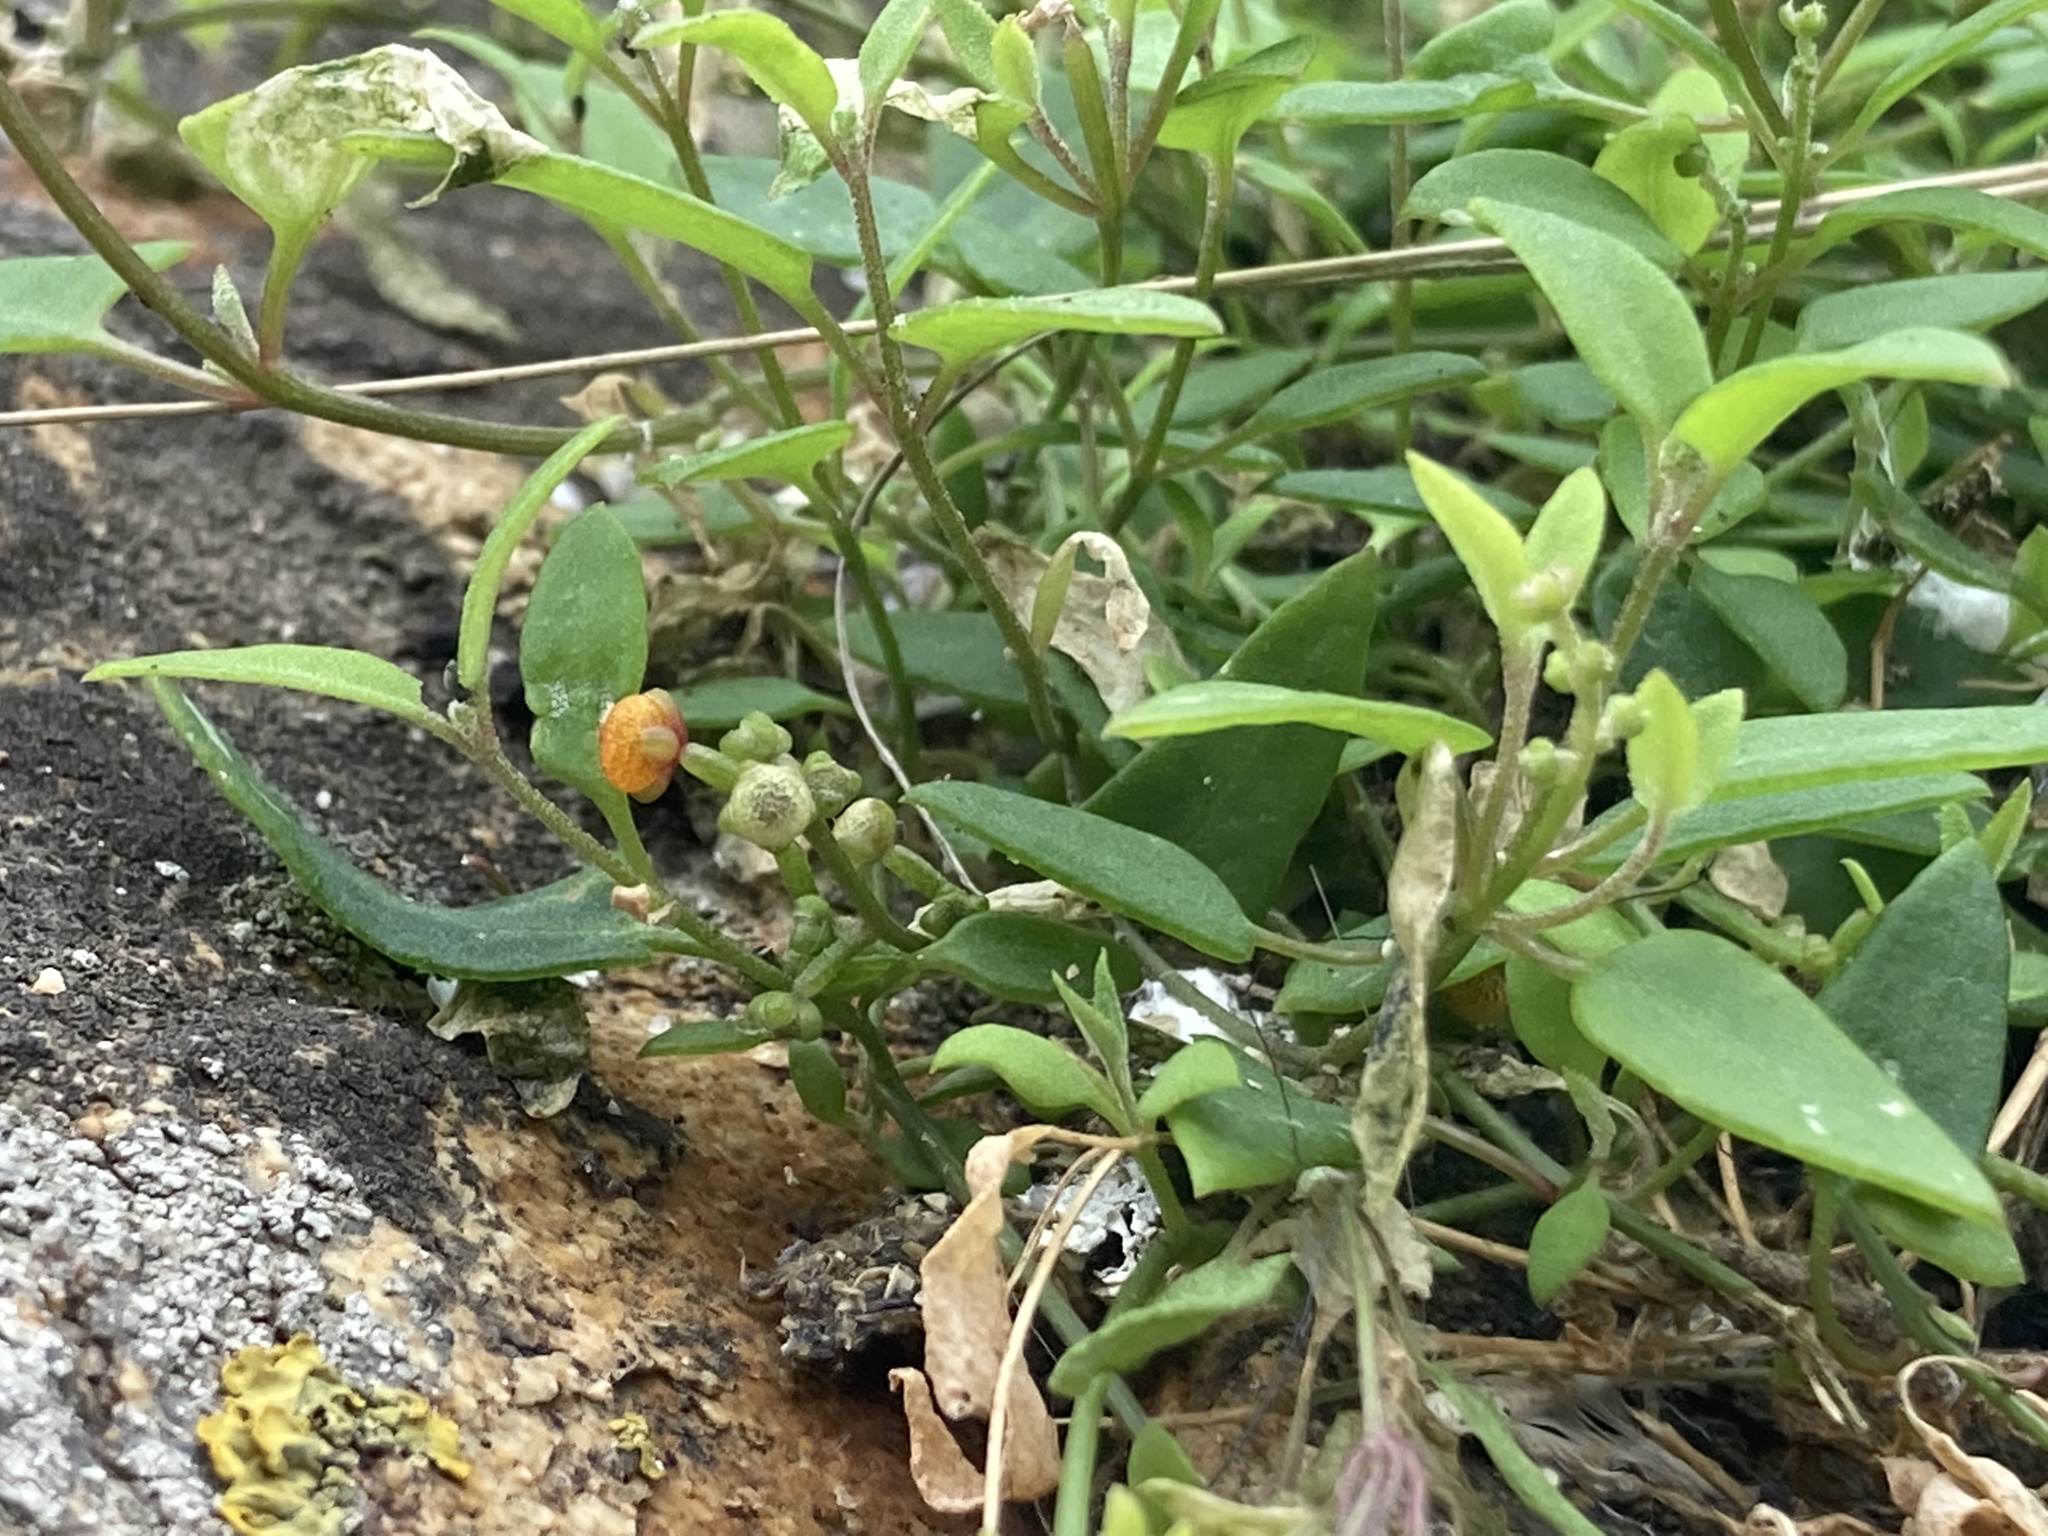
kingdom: Plantae
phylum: Tracheophyta
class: Magnoliopsida
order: Caryophyllales
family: Amaranthaceae
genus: Chenopodium
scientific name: Chenopodium nutans
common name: Climbing-saltbush
